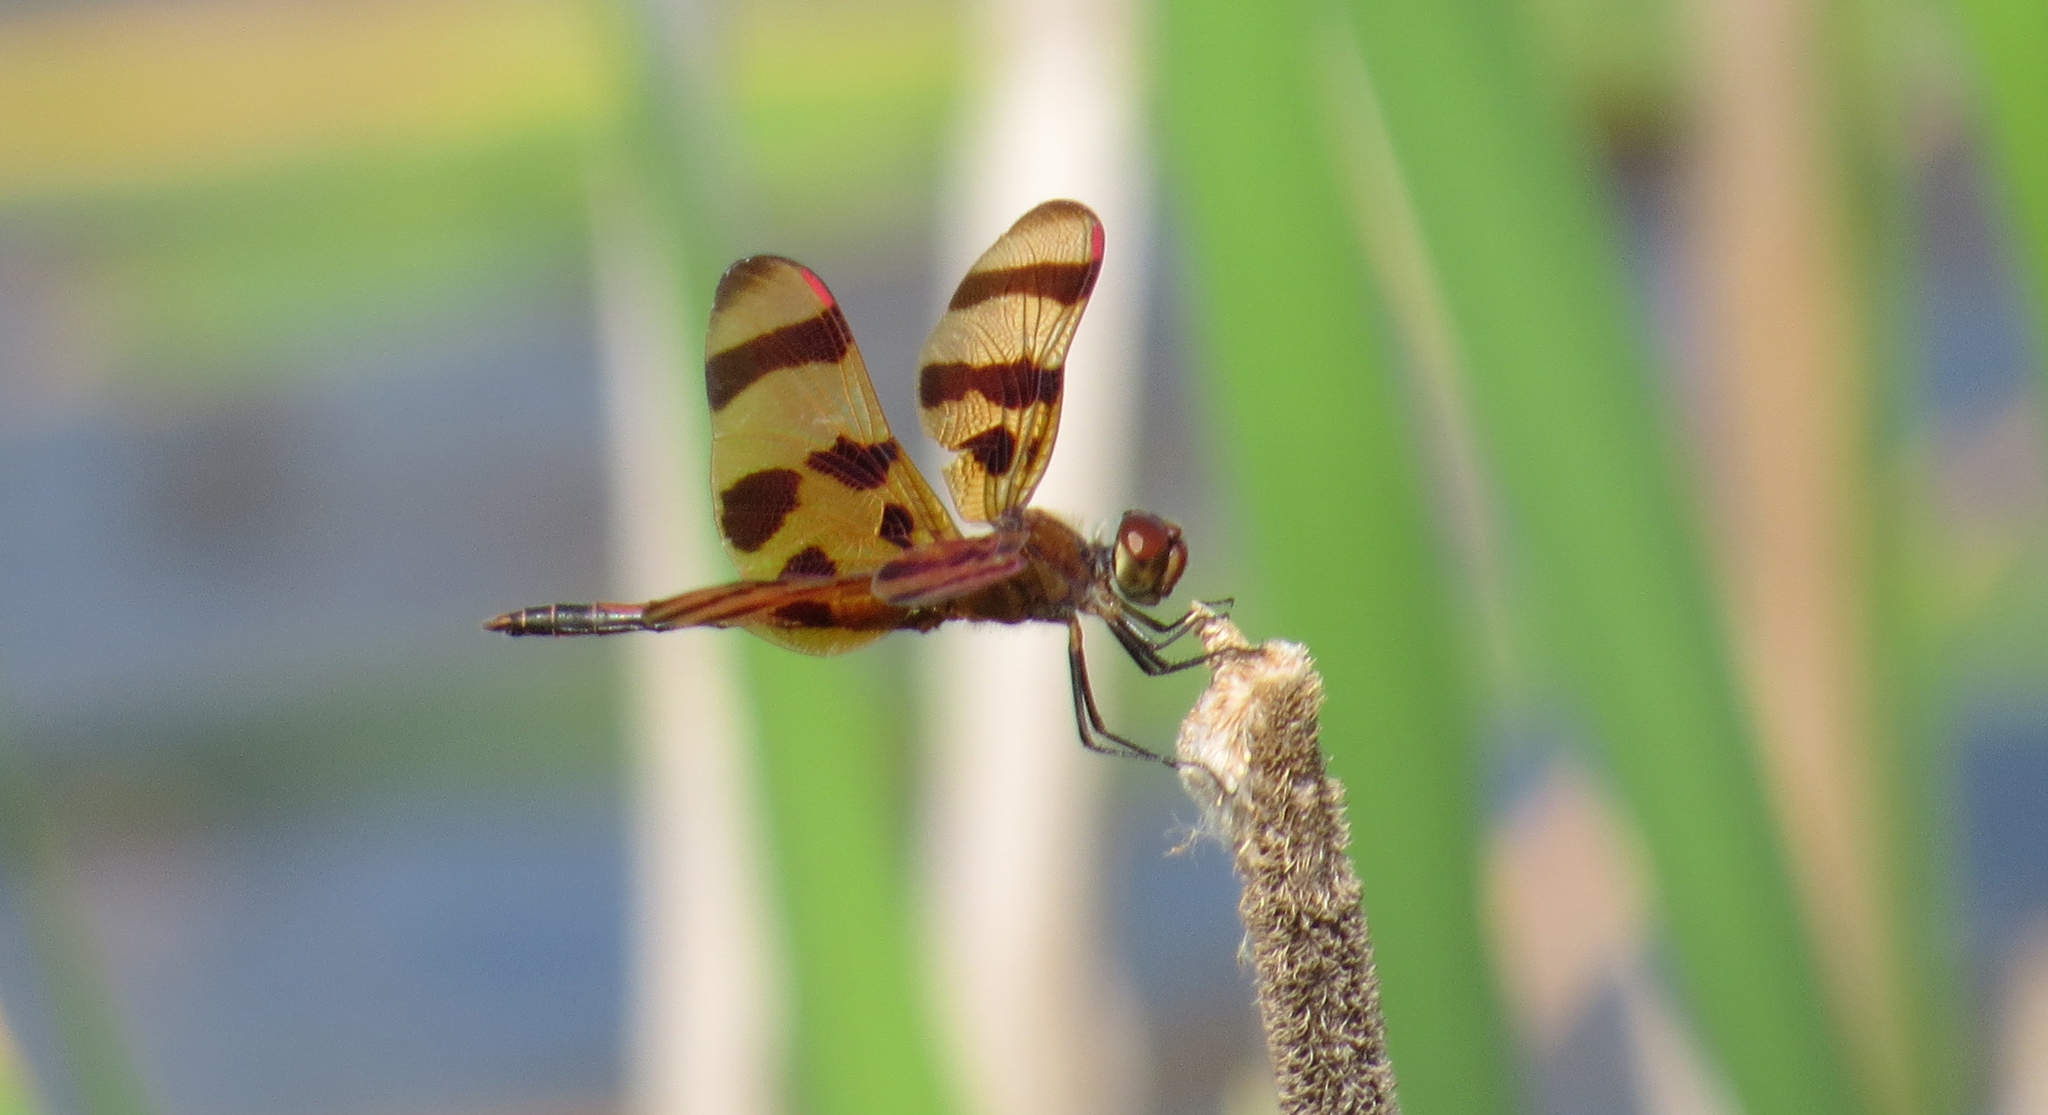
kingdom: Animalia
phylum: Arthropoda
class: Insecta
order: Odonata
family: Libellulidae
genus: Celithemis
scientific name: Celithemis eponina
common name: Halloween pennant
